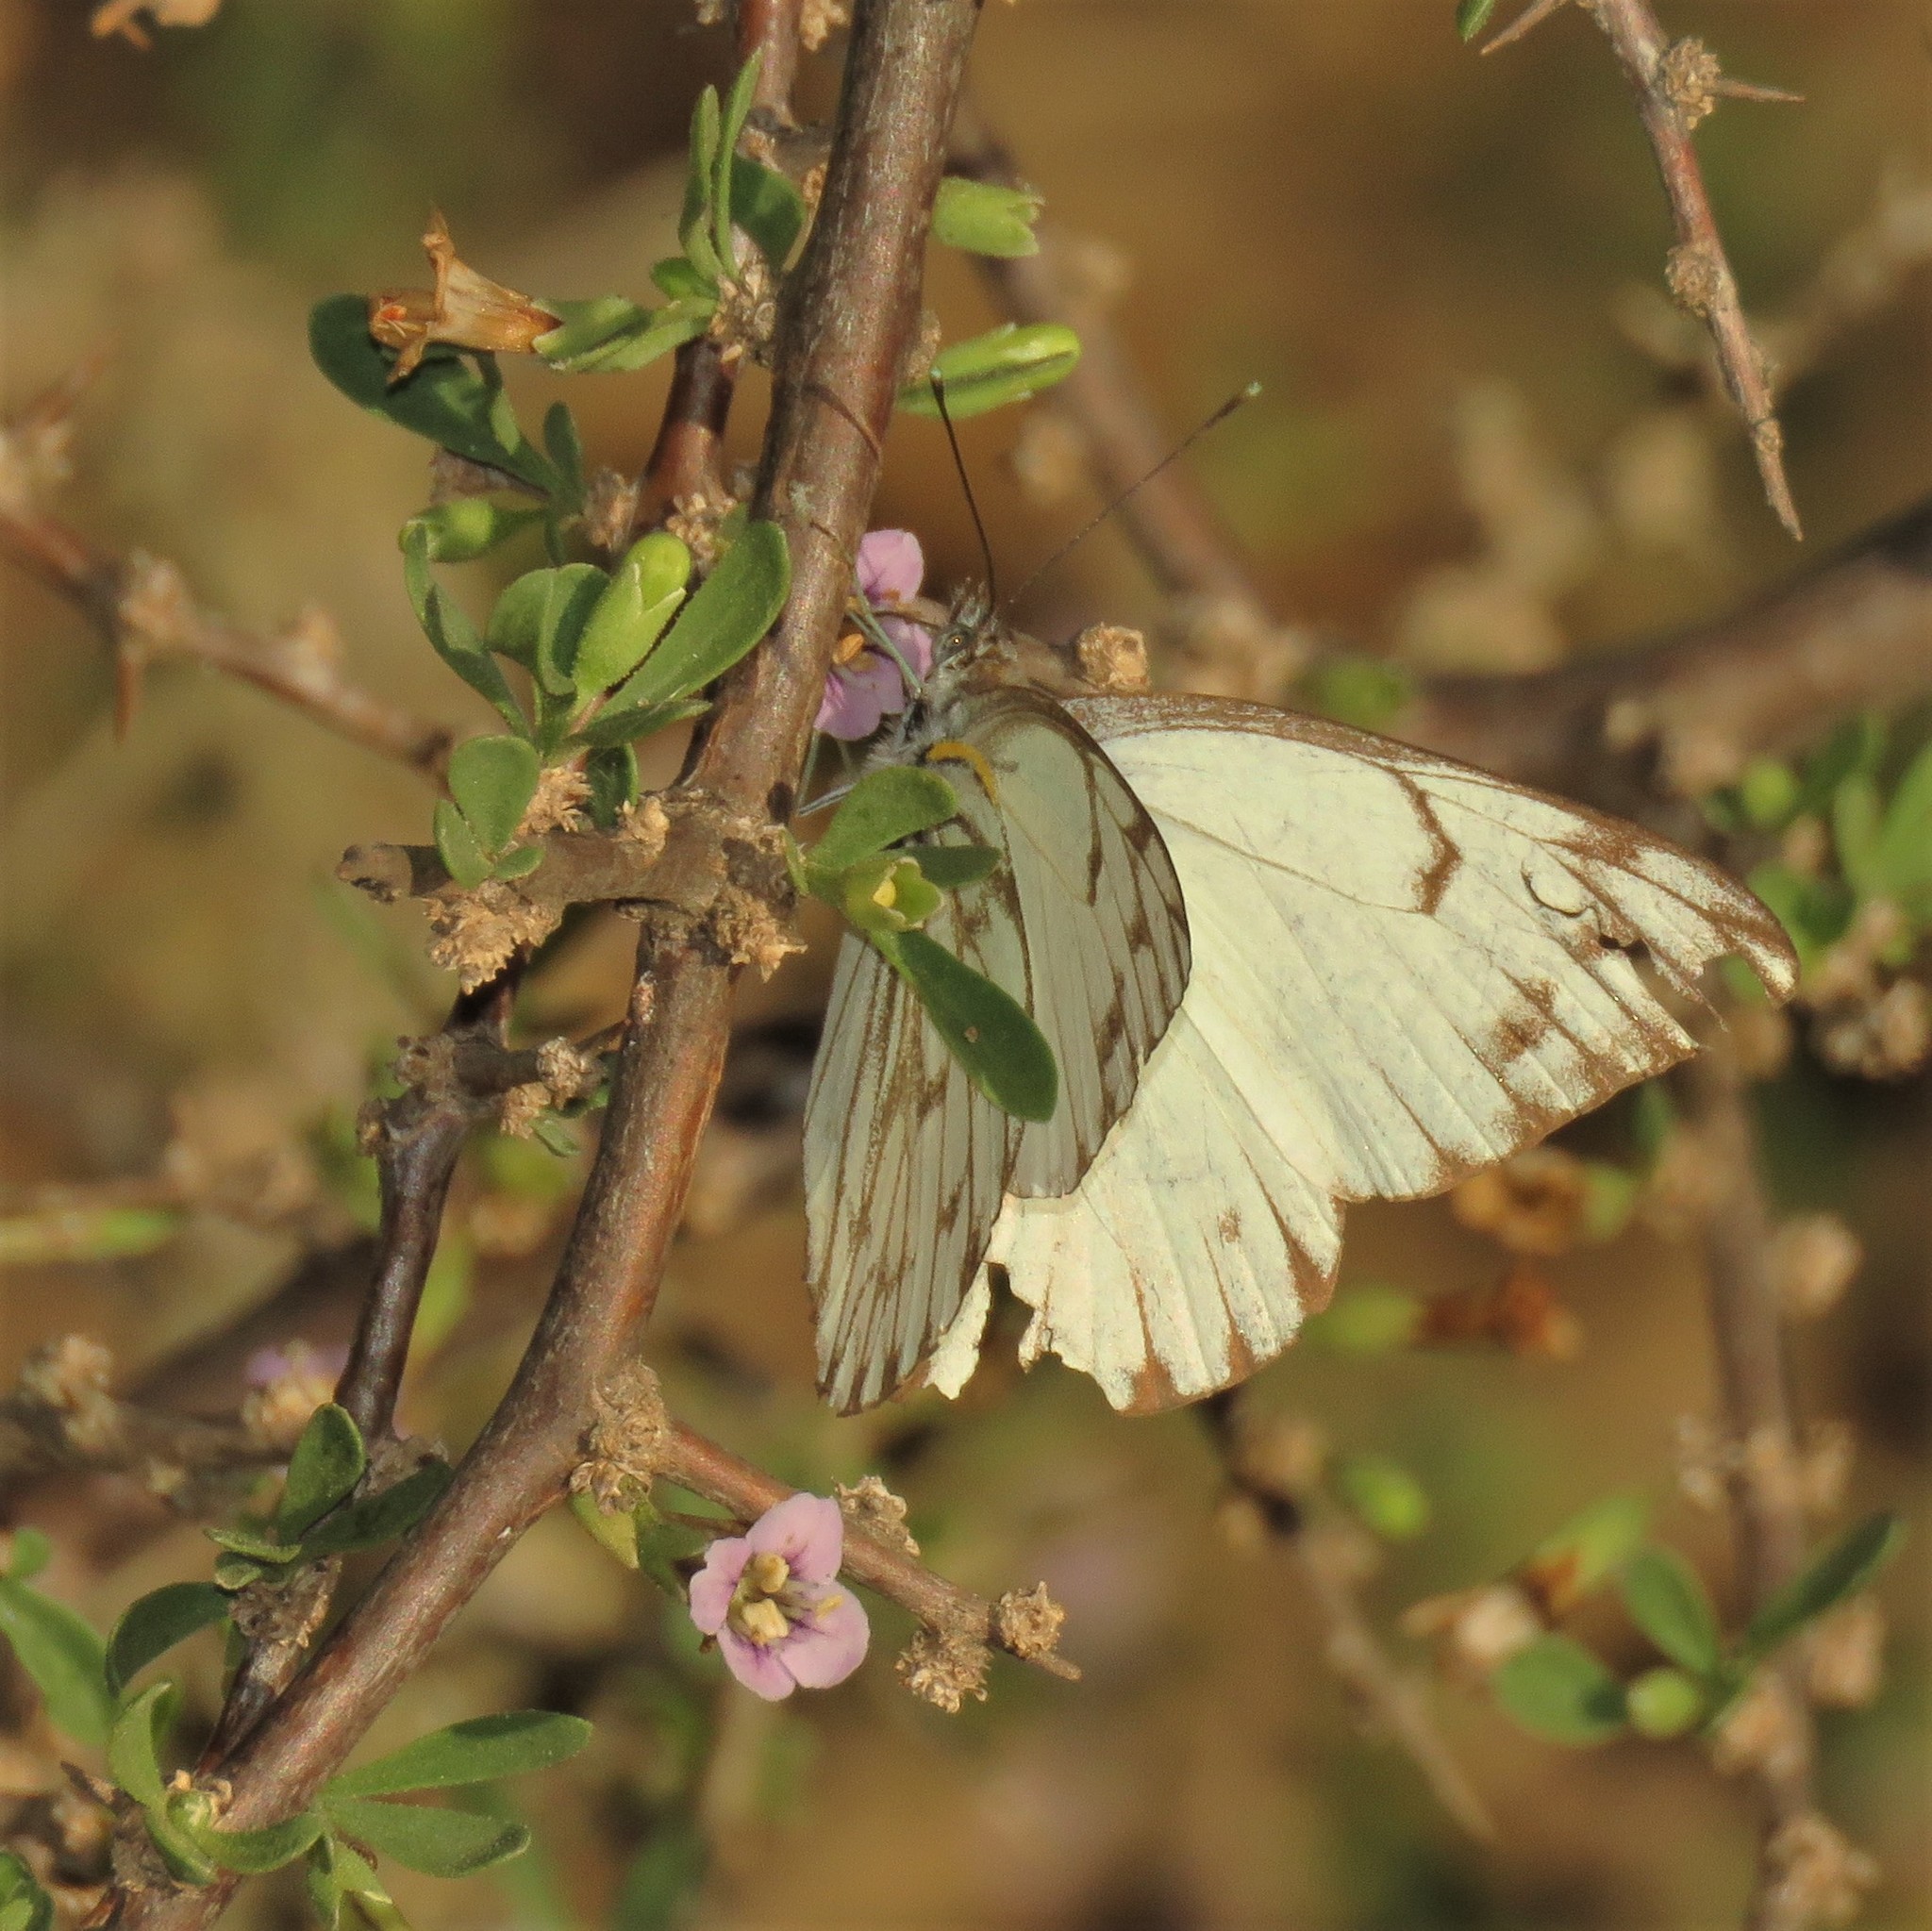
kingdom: Animalia
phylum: Arthropoda
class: Insecta
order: Lepidoptera
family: Pieridae
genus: Belenois
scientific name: Belenois gidica
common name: Pointed caper white
